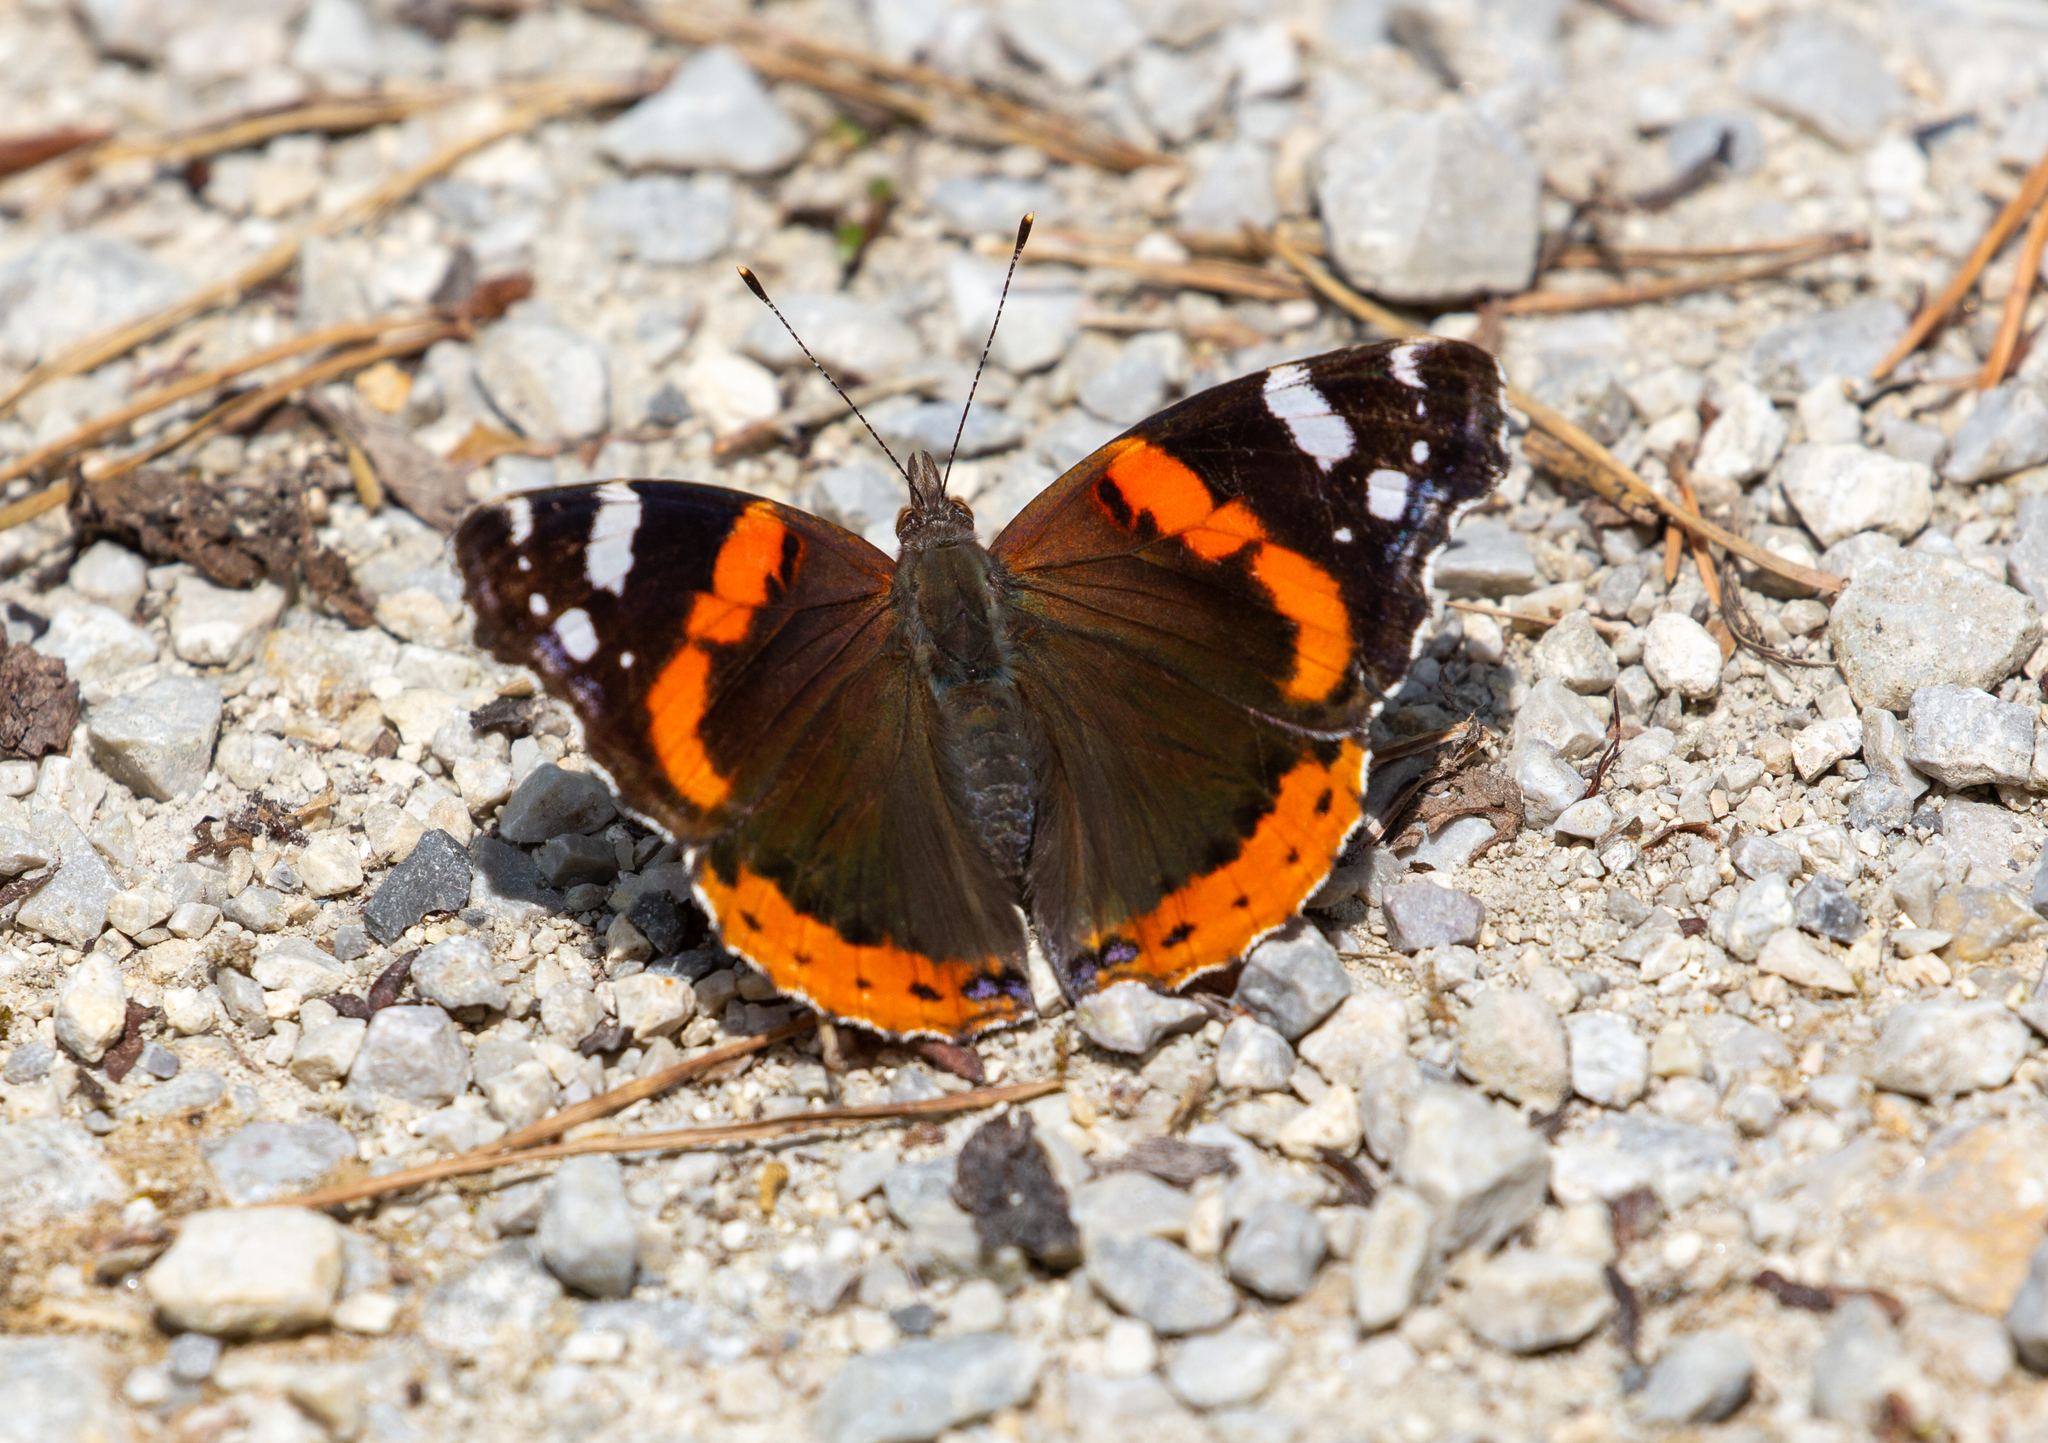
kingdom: Animalia
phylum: Arthropoda
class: Insecta
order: Lepidoptera
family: Nymphalidae
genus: Vanessa
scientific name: Vanessa atalanta
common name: Red admiral
